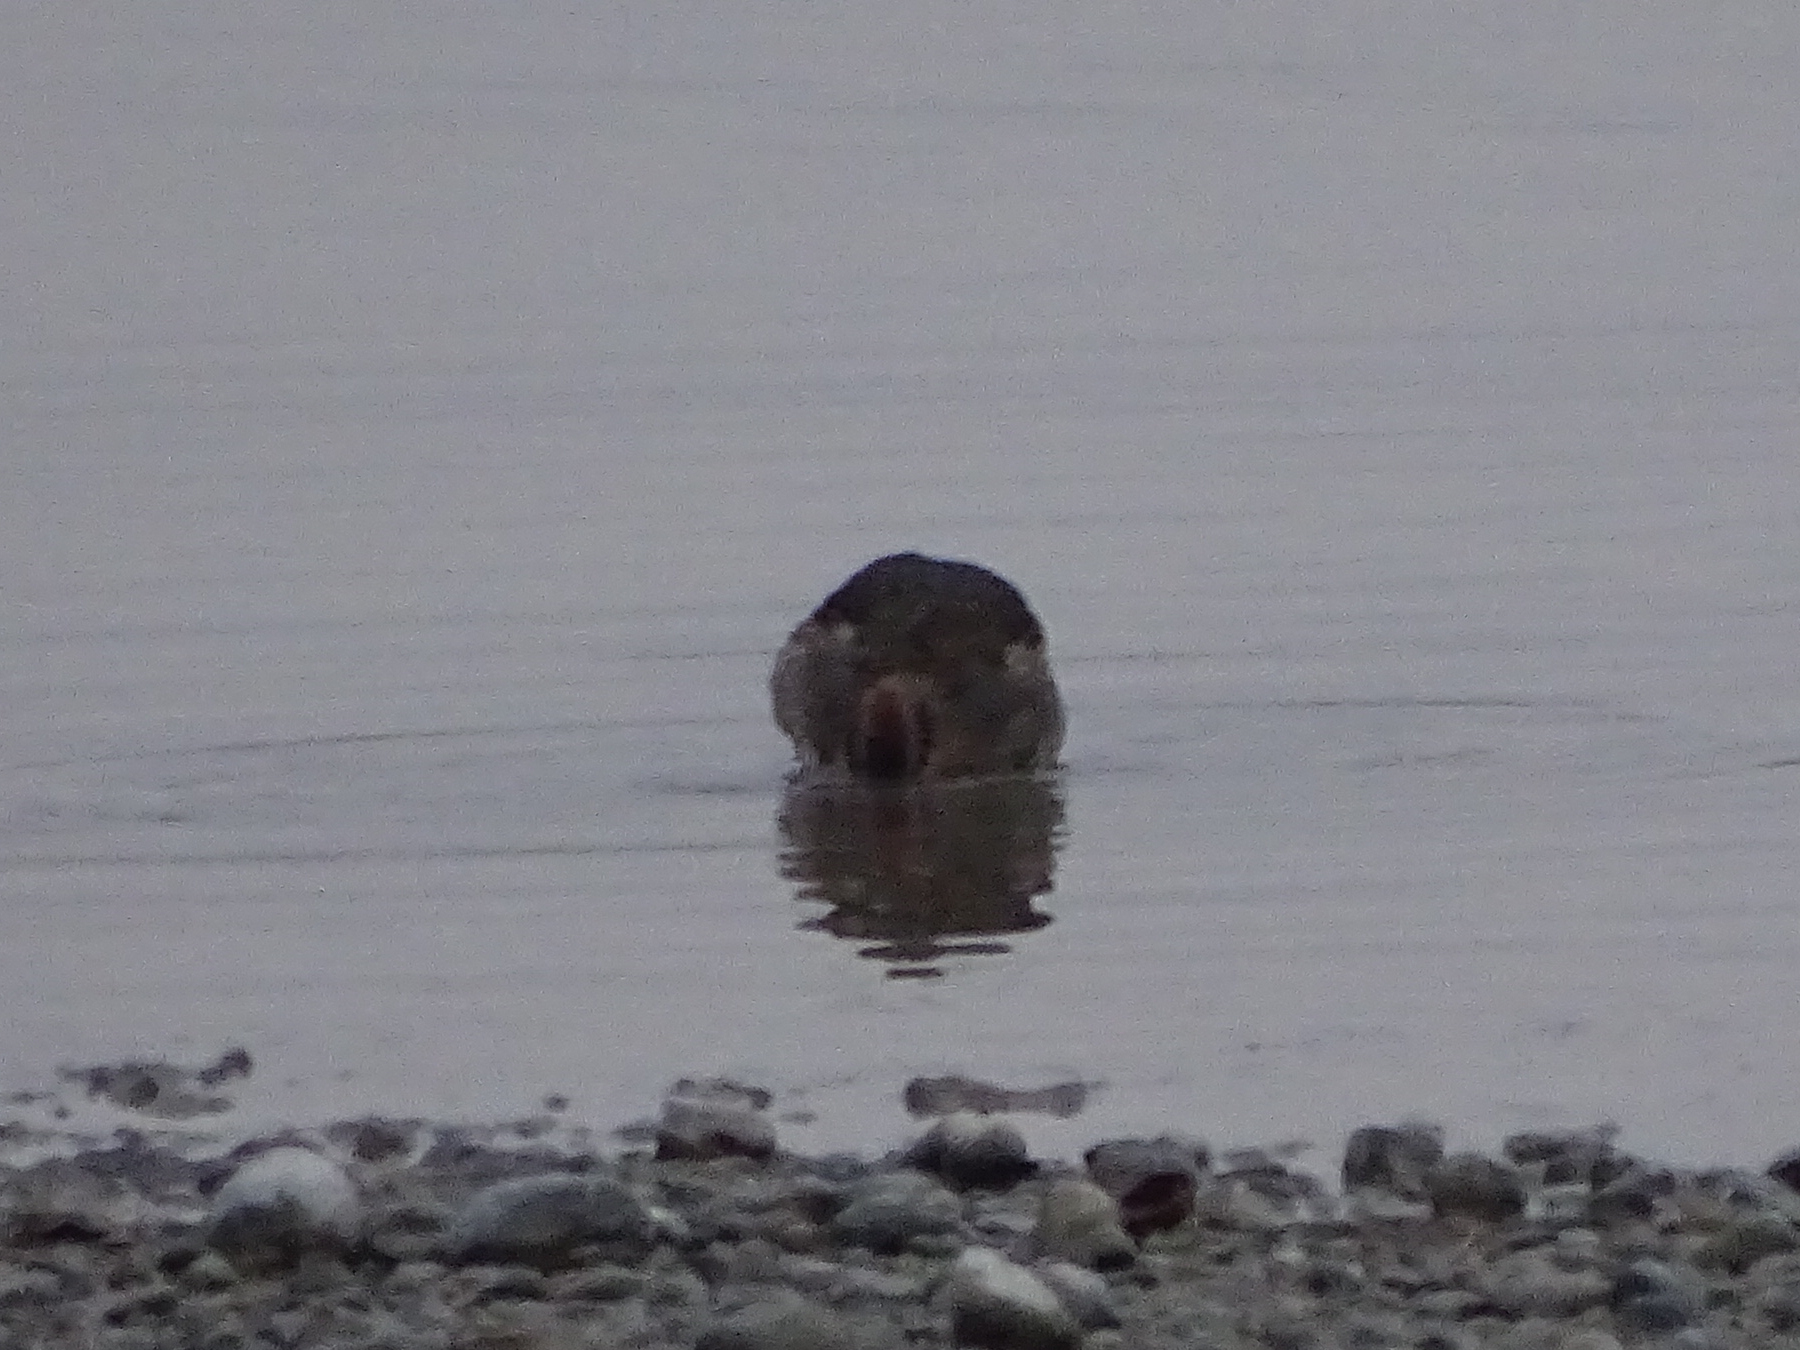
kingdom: Animalia
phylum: Chordata
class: Aves
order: Anseriformes
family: Anatidae
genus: Anas
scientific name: Anas crecca
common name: Eurasian teal
